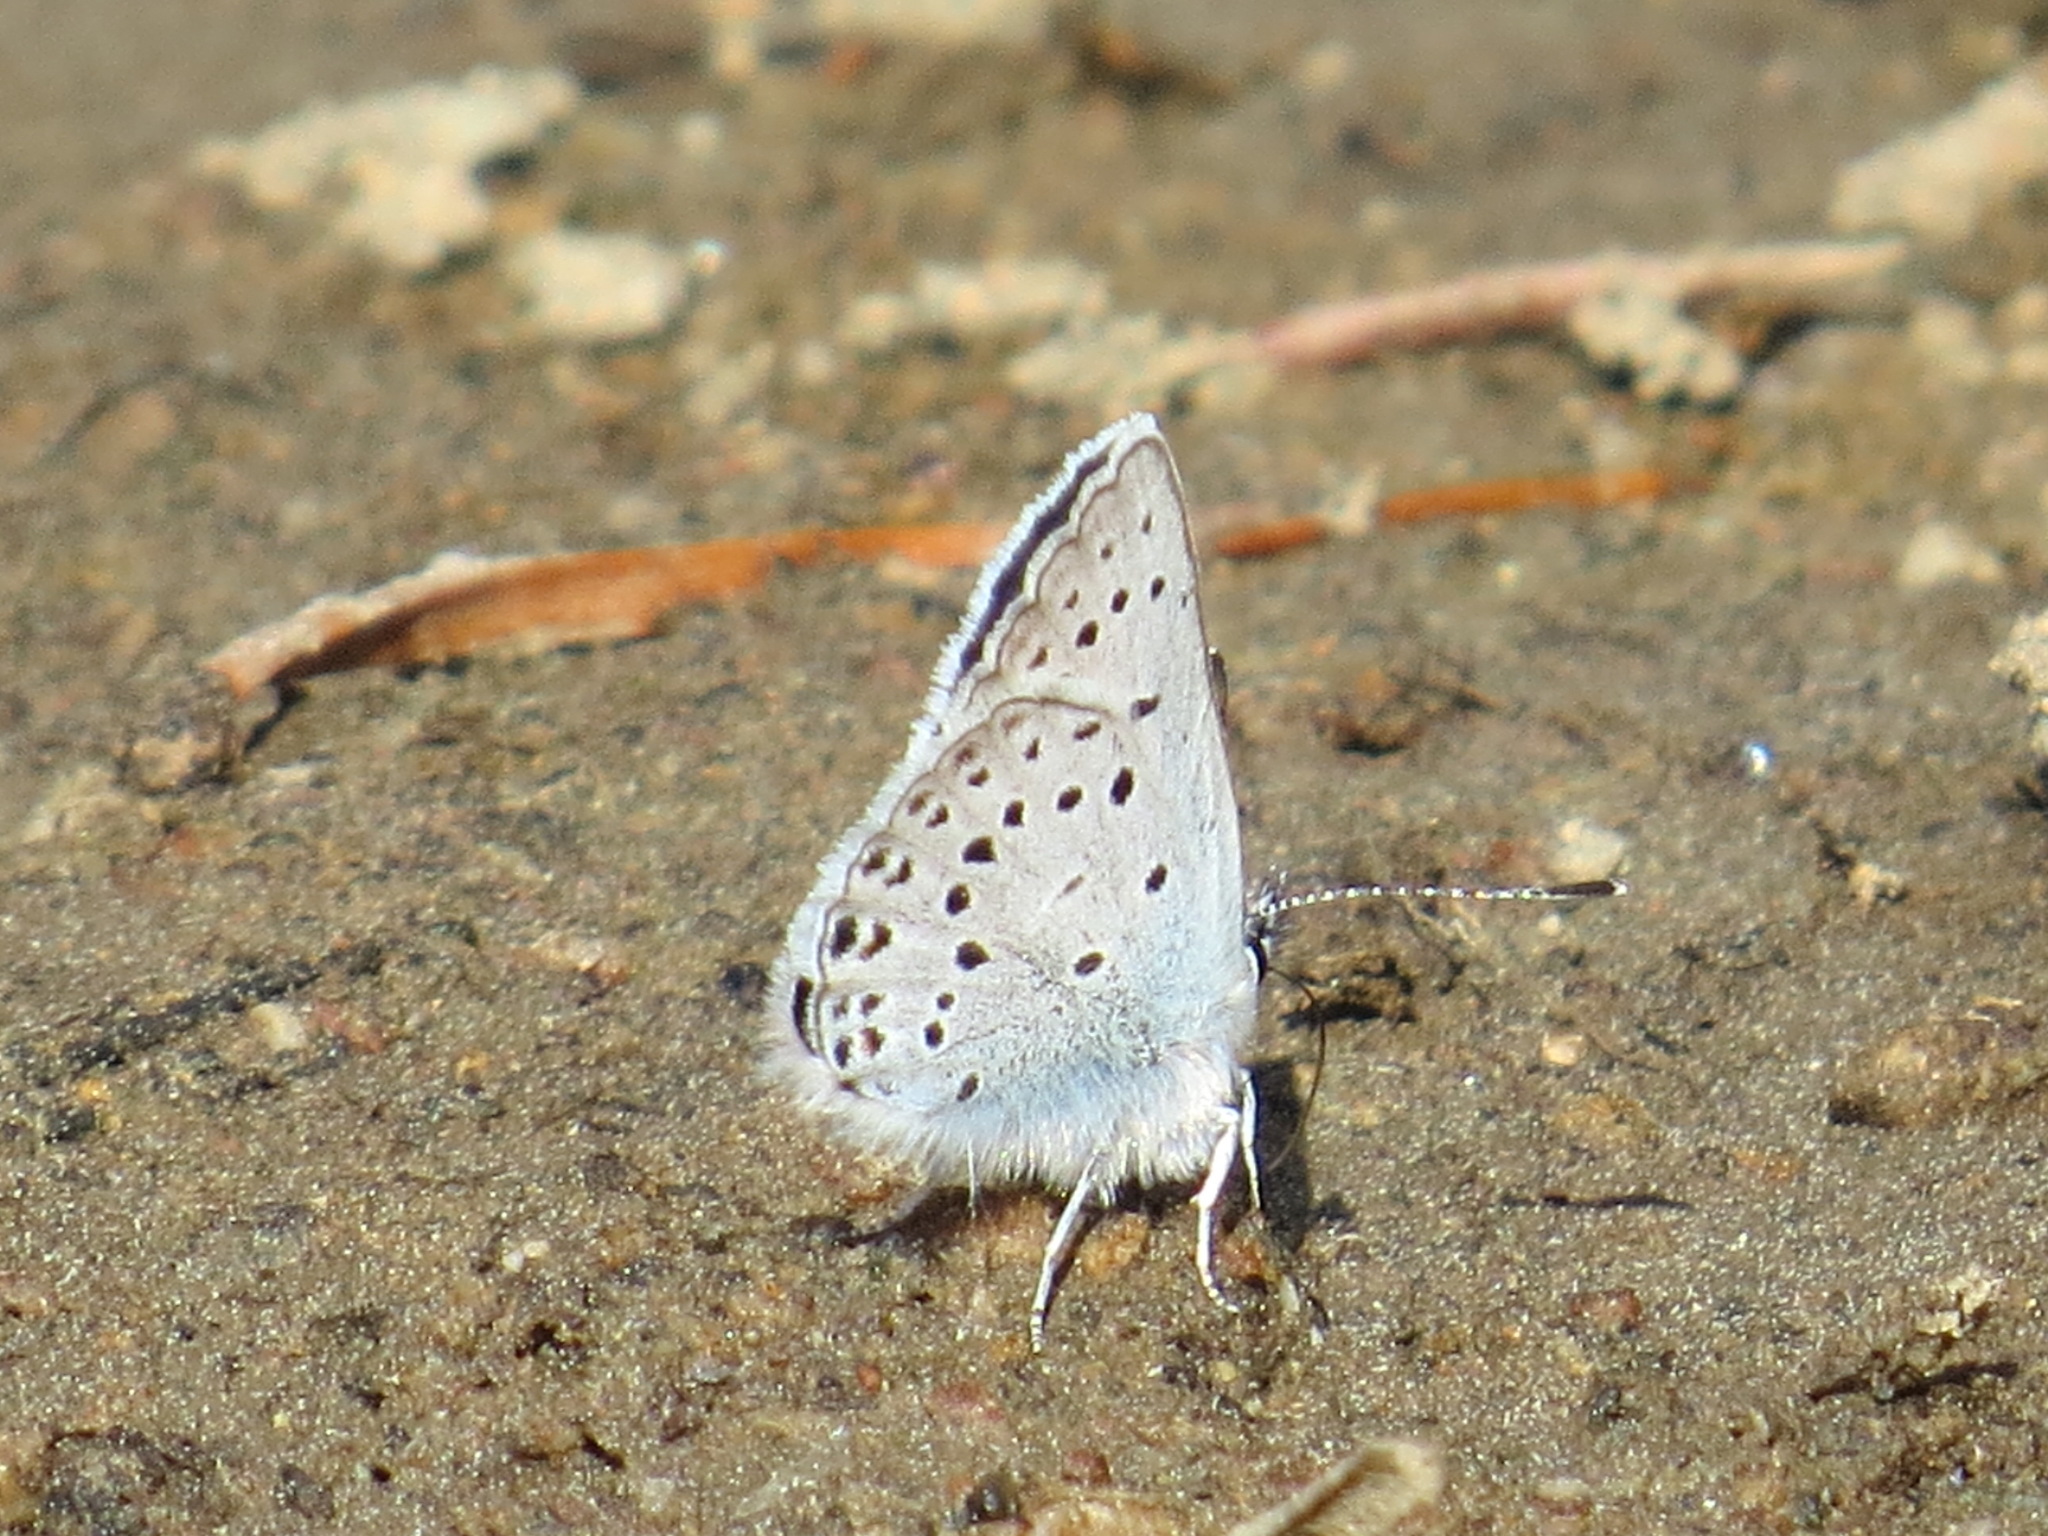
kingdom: Animalia
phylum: Arthropoda
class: Insecta
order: Lepidoptera
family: Lycaenidae
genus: Icaricia
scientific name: Icaricia saepiolus
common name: Greenish blue
